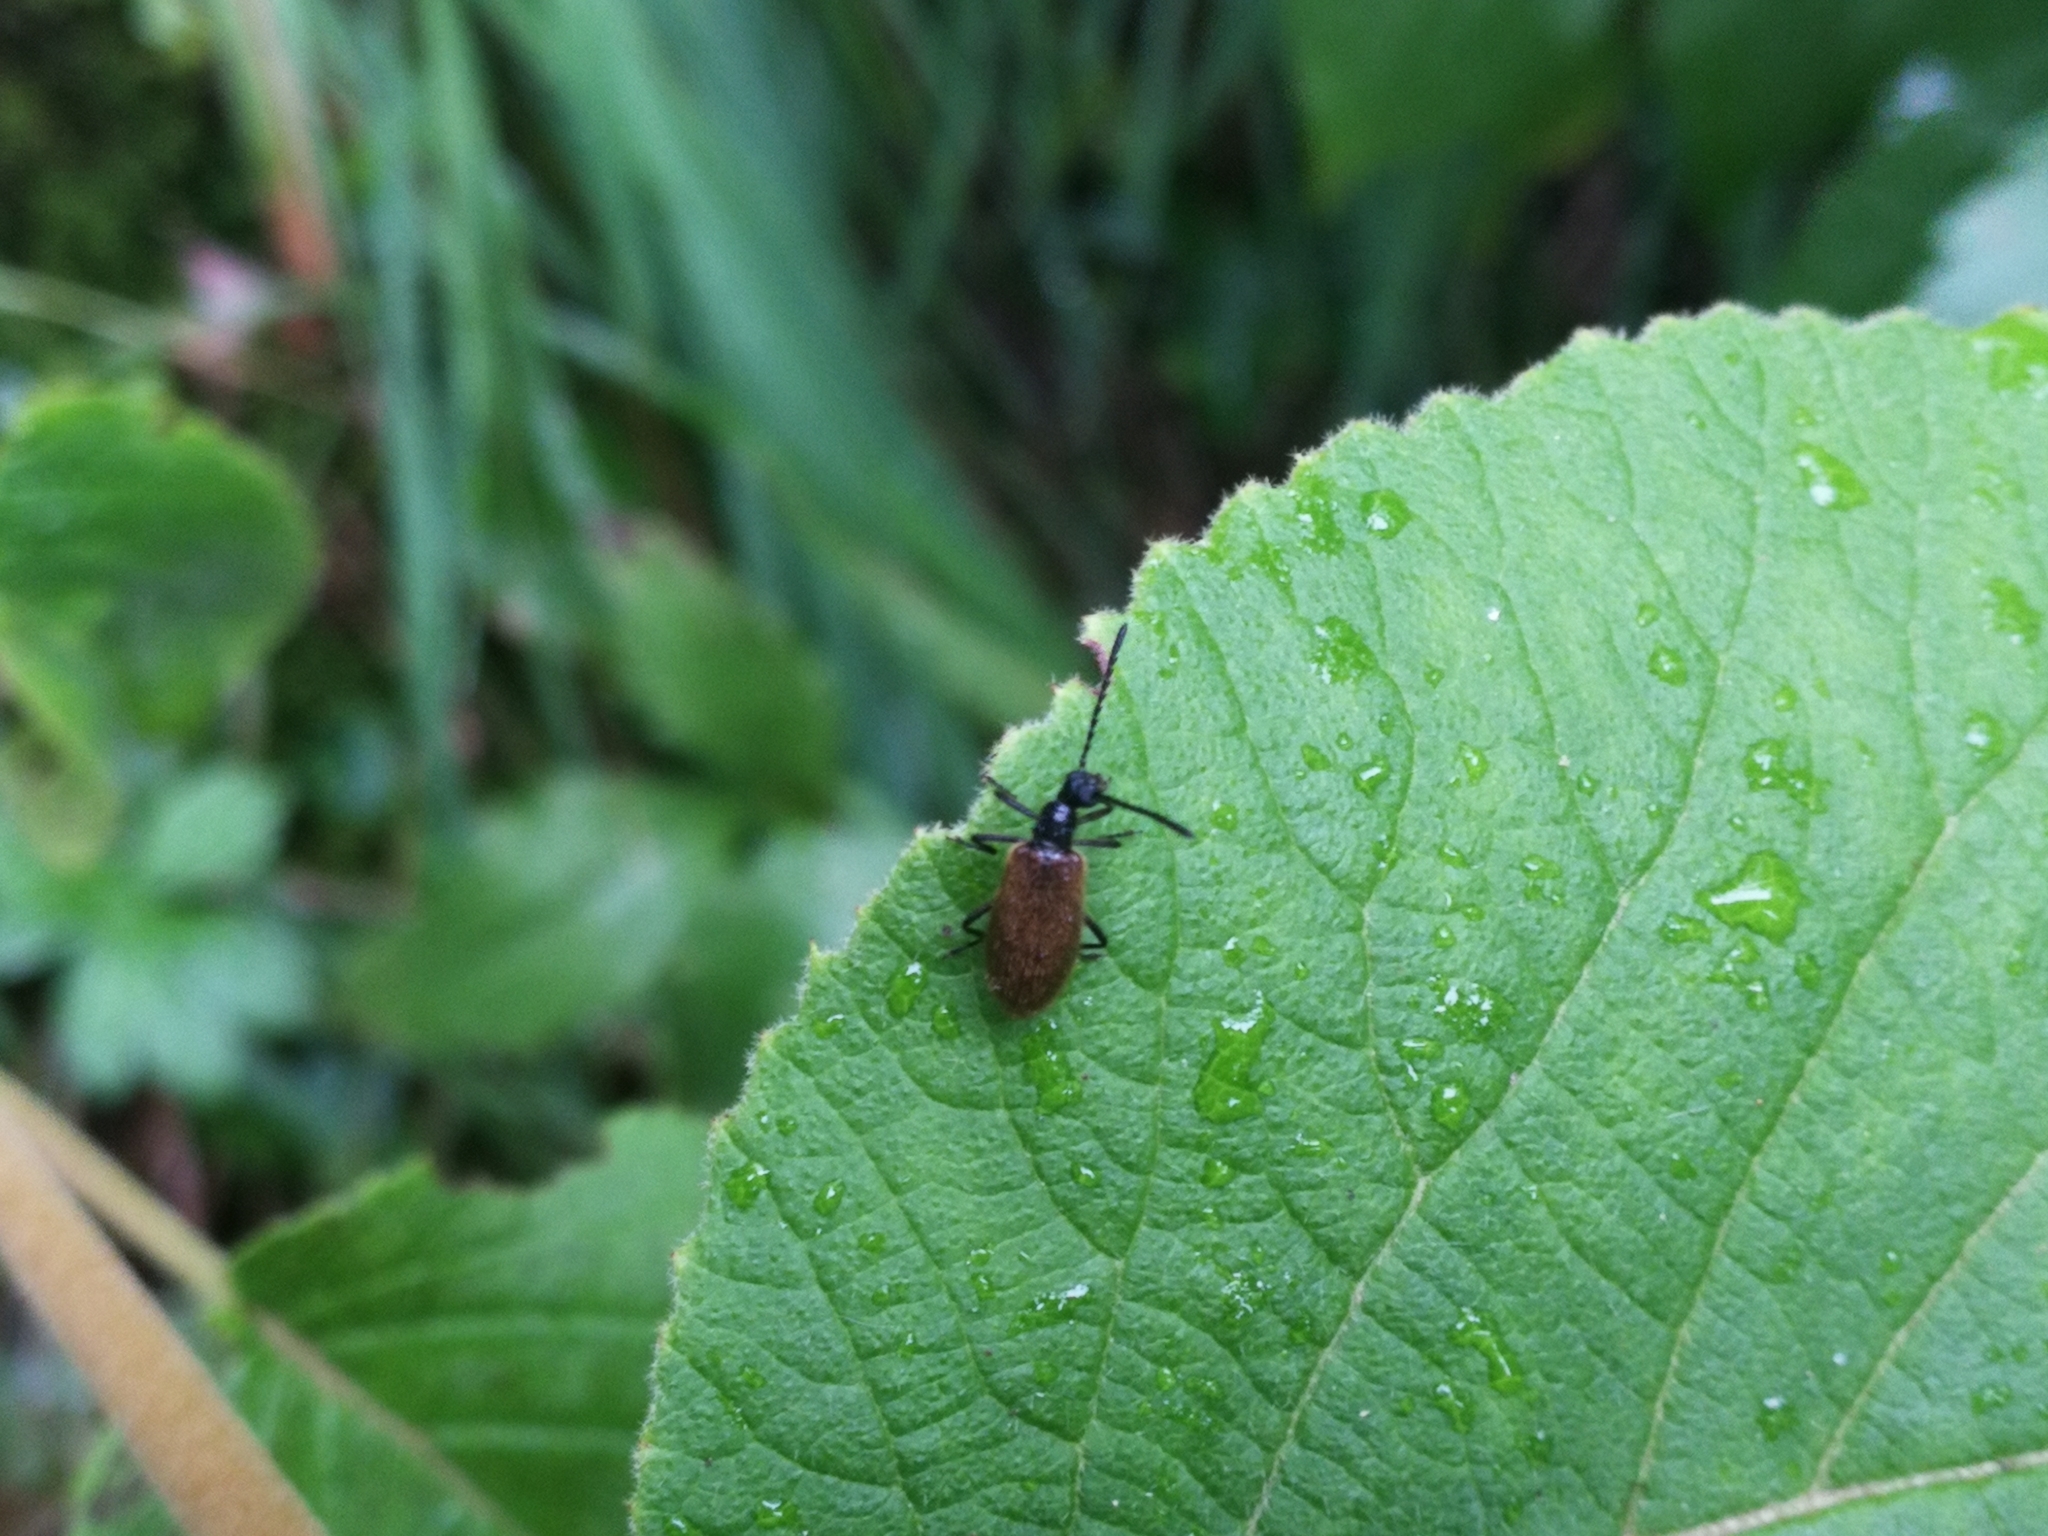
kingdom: Animalia
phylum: Arthropoda
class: Insecta
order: Coleoptera
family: Tenebrionidae
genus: Lagria
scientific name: Lagria hirta
